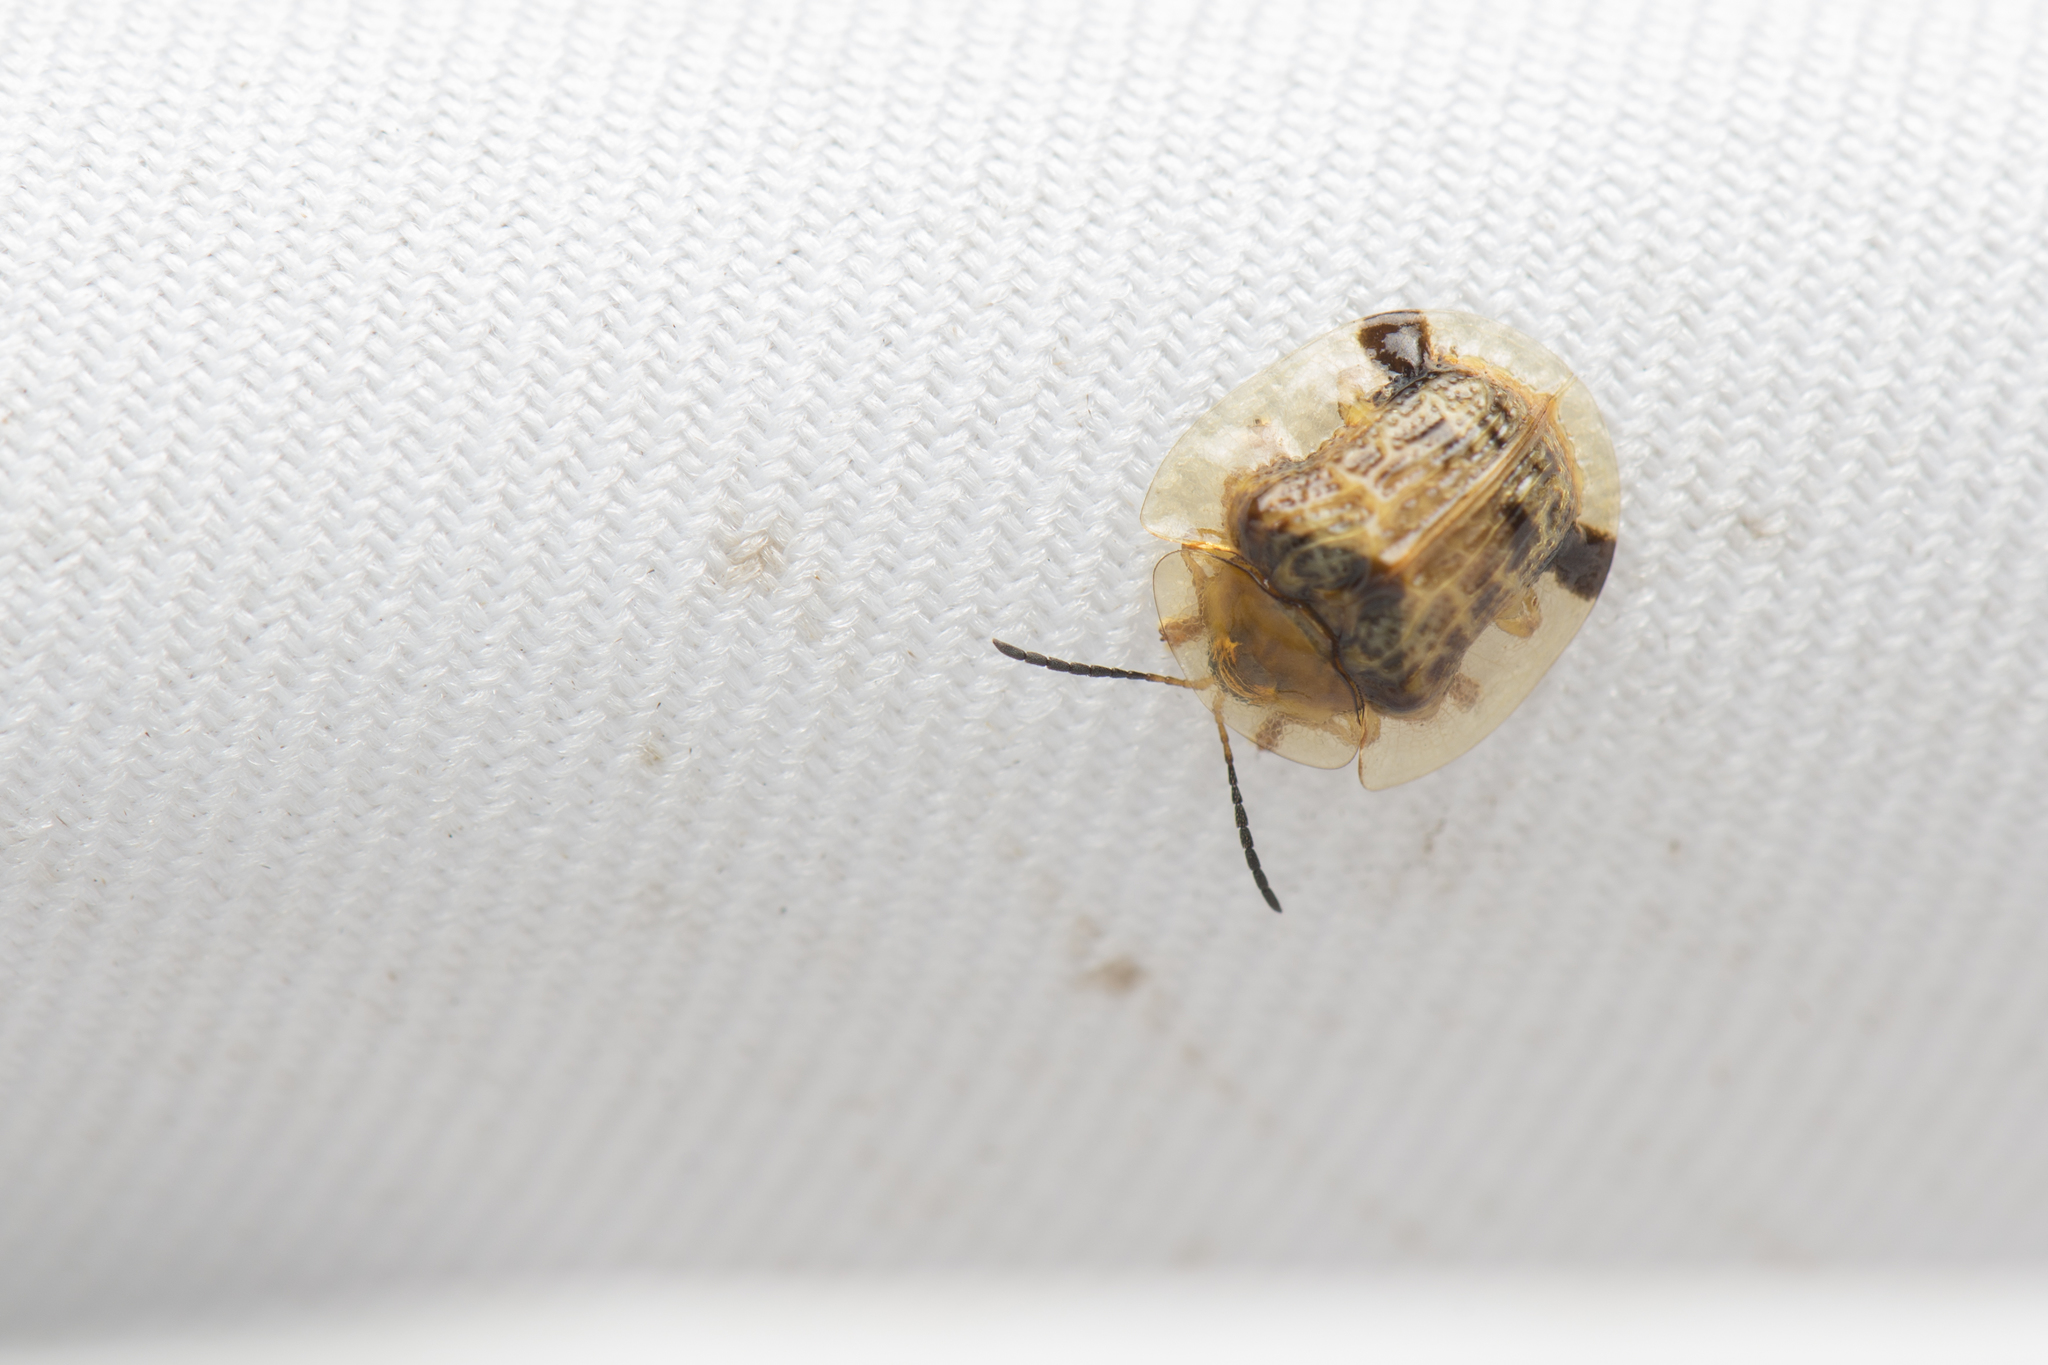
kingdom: Animalia
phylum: Arthropoda
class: Insecta
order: Coleoptera
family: Chrysomelidae
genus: Thlaspida
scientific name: Thlaspida biramosa
